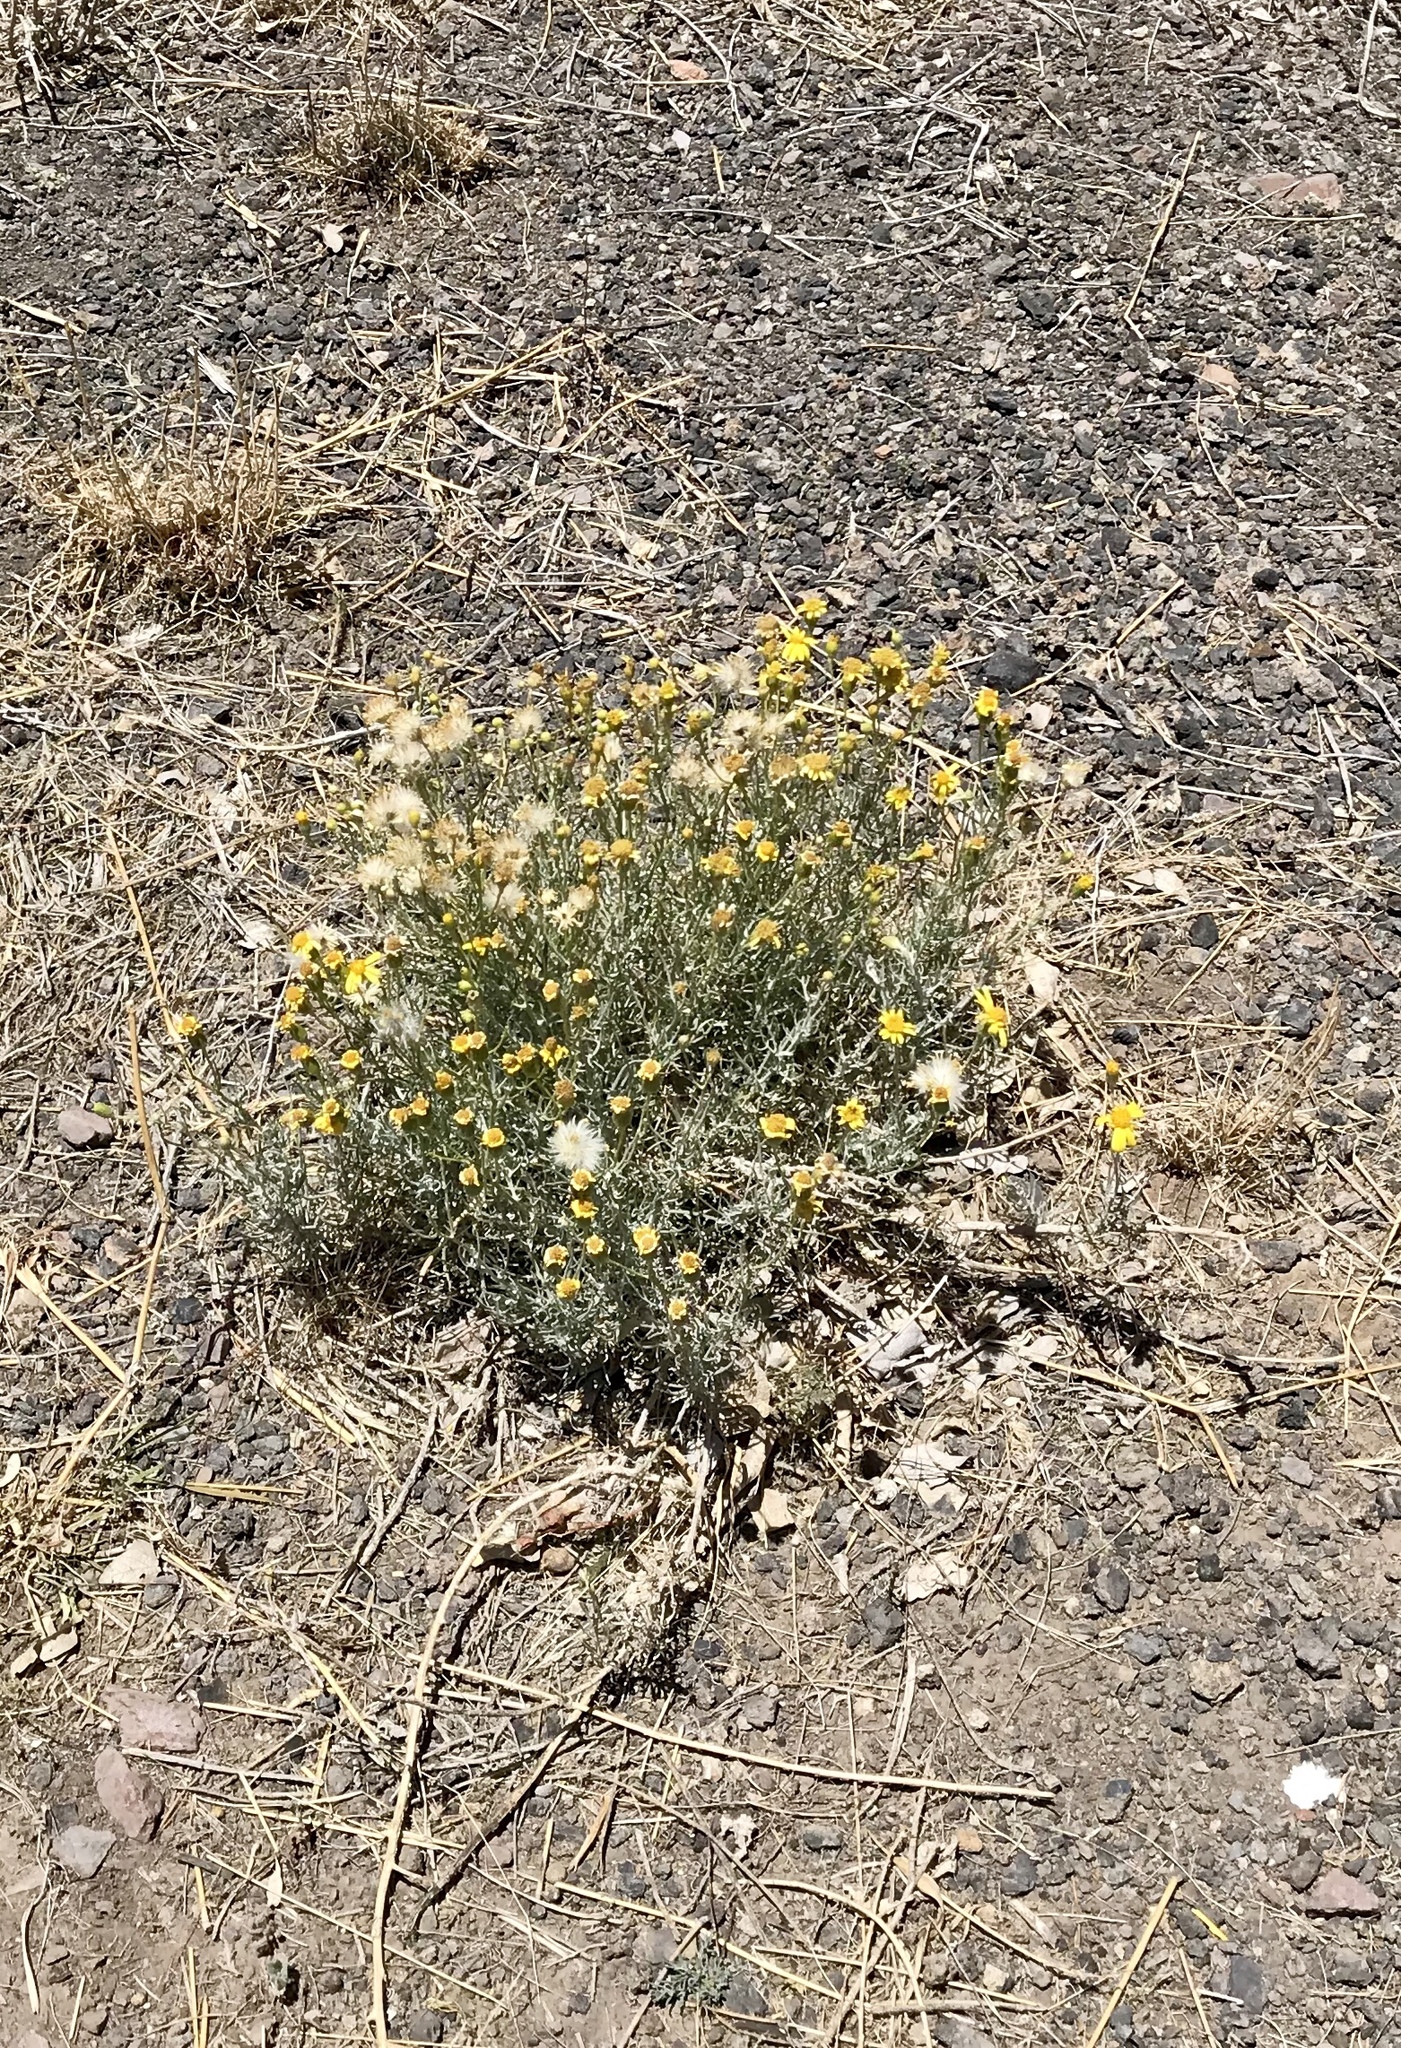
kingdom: Plantae
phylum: Tracheophyta
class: Magnoliopsida
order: Asterales
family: Asteraceae
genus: Senecio
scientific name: Senecio flaccidus
